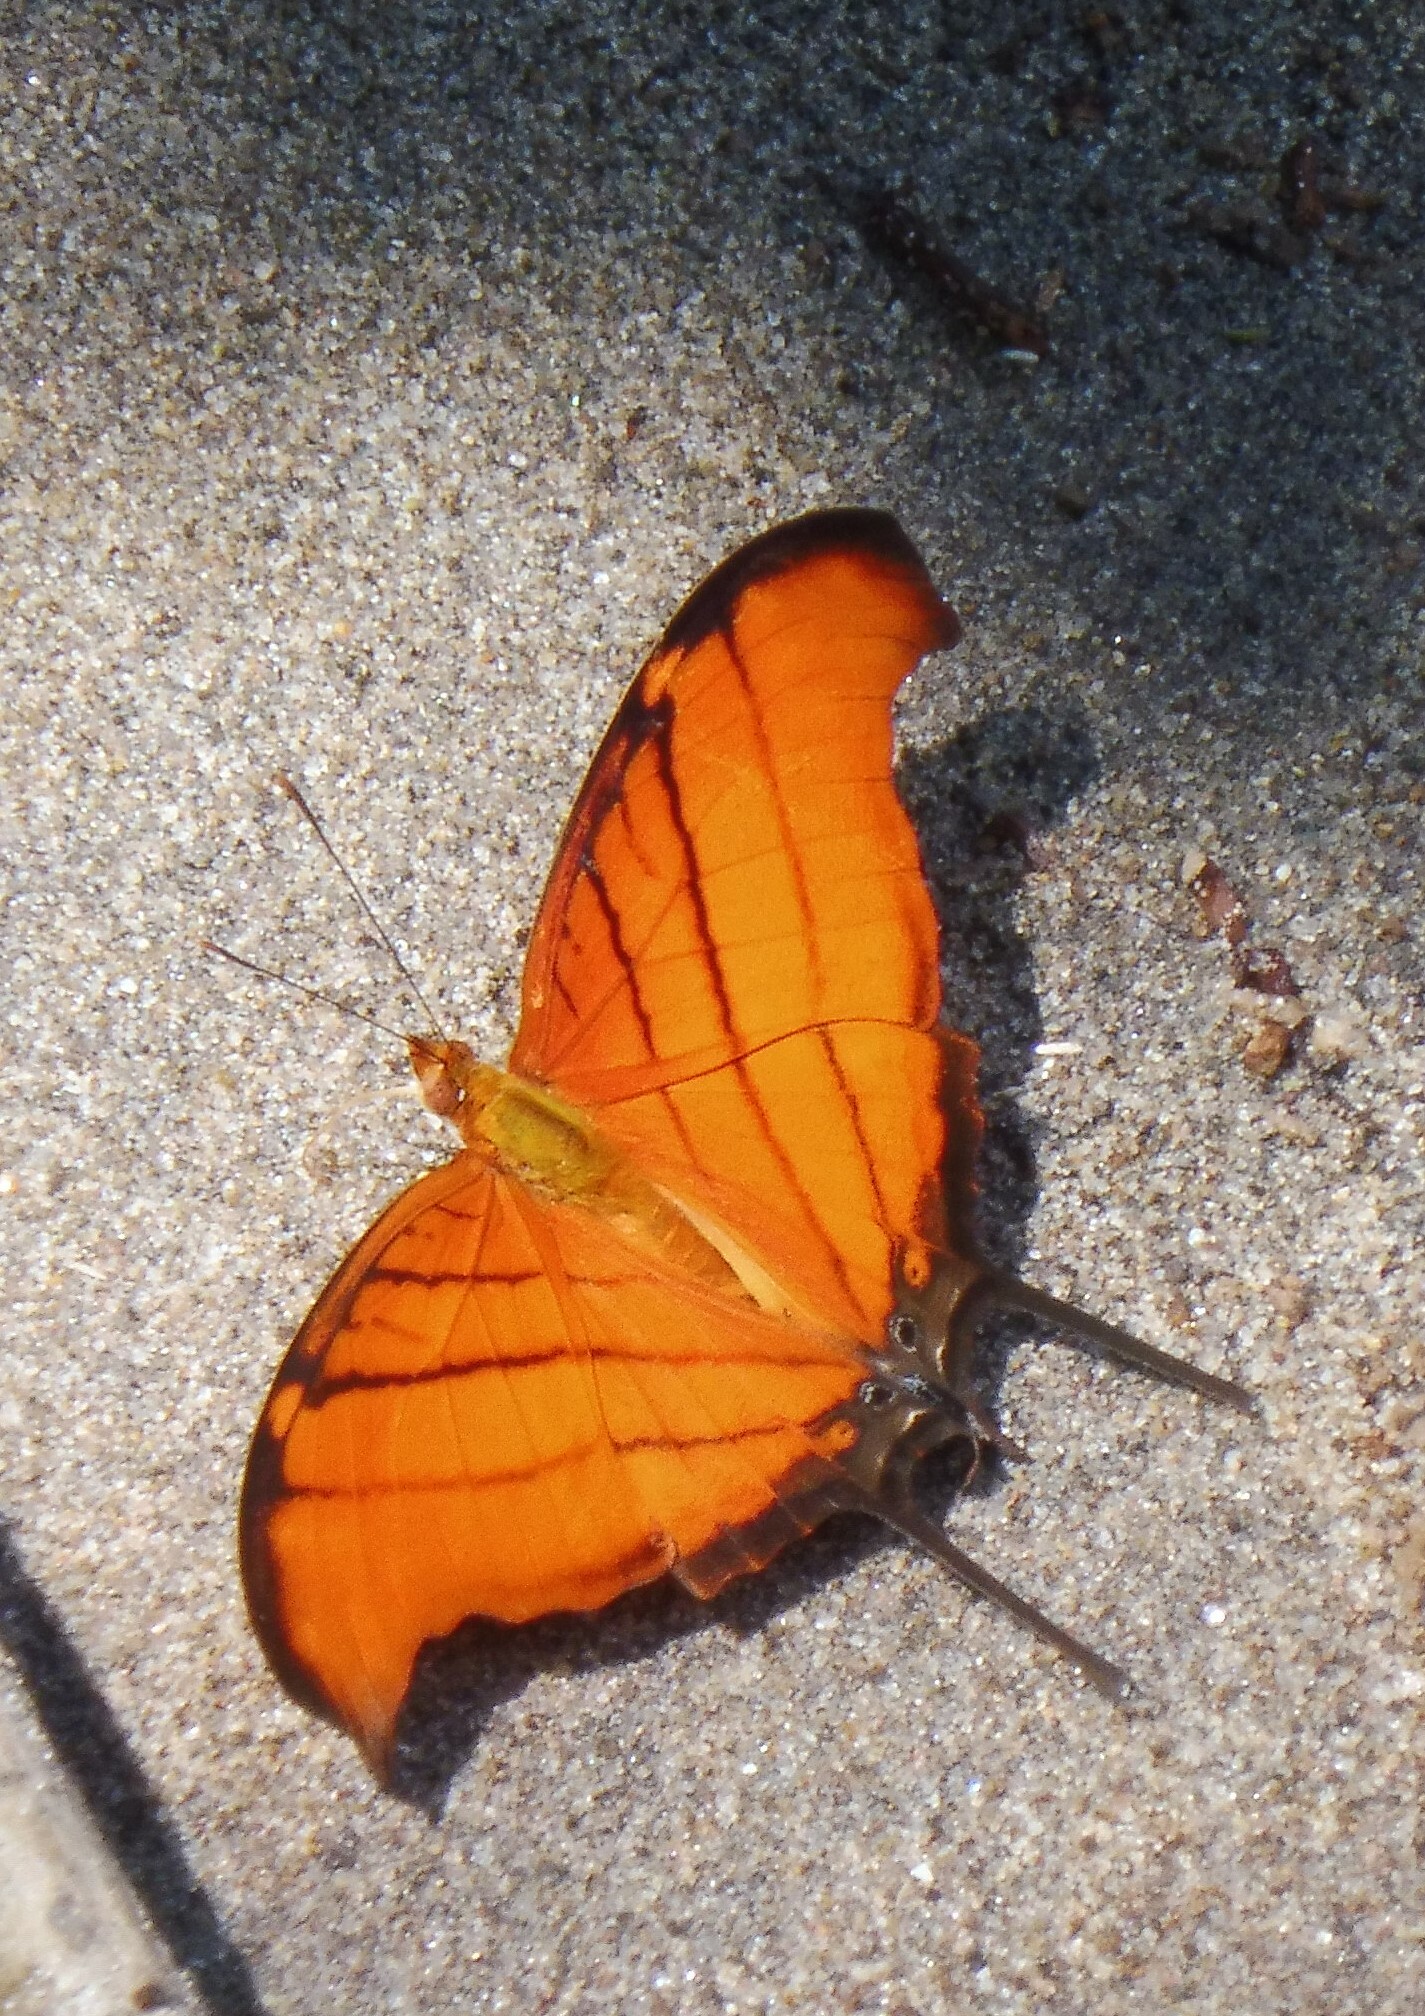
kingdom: Animalia
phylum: Arthropoda
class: Insecta
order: Lepidoptera
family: Nymphalidae
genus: Marpesia
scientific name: Marpesia petreus
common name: Red dagger wing
